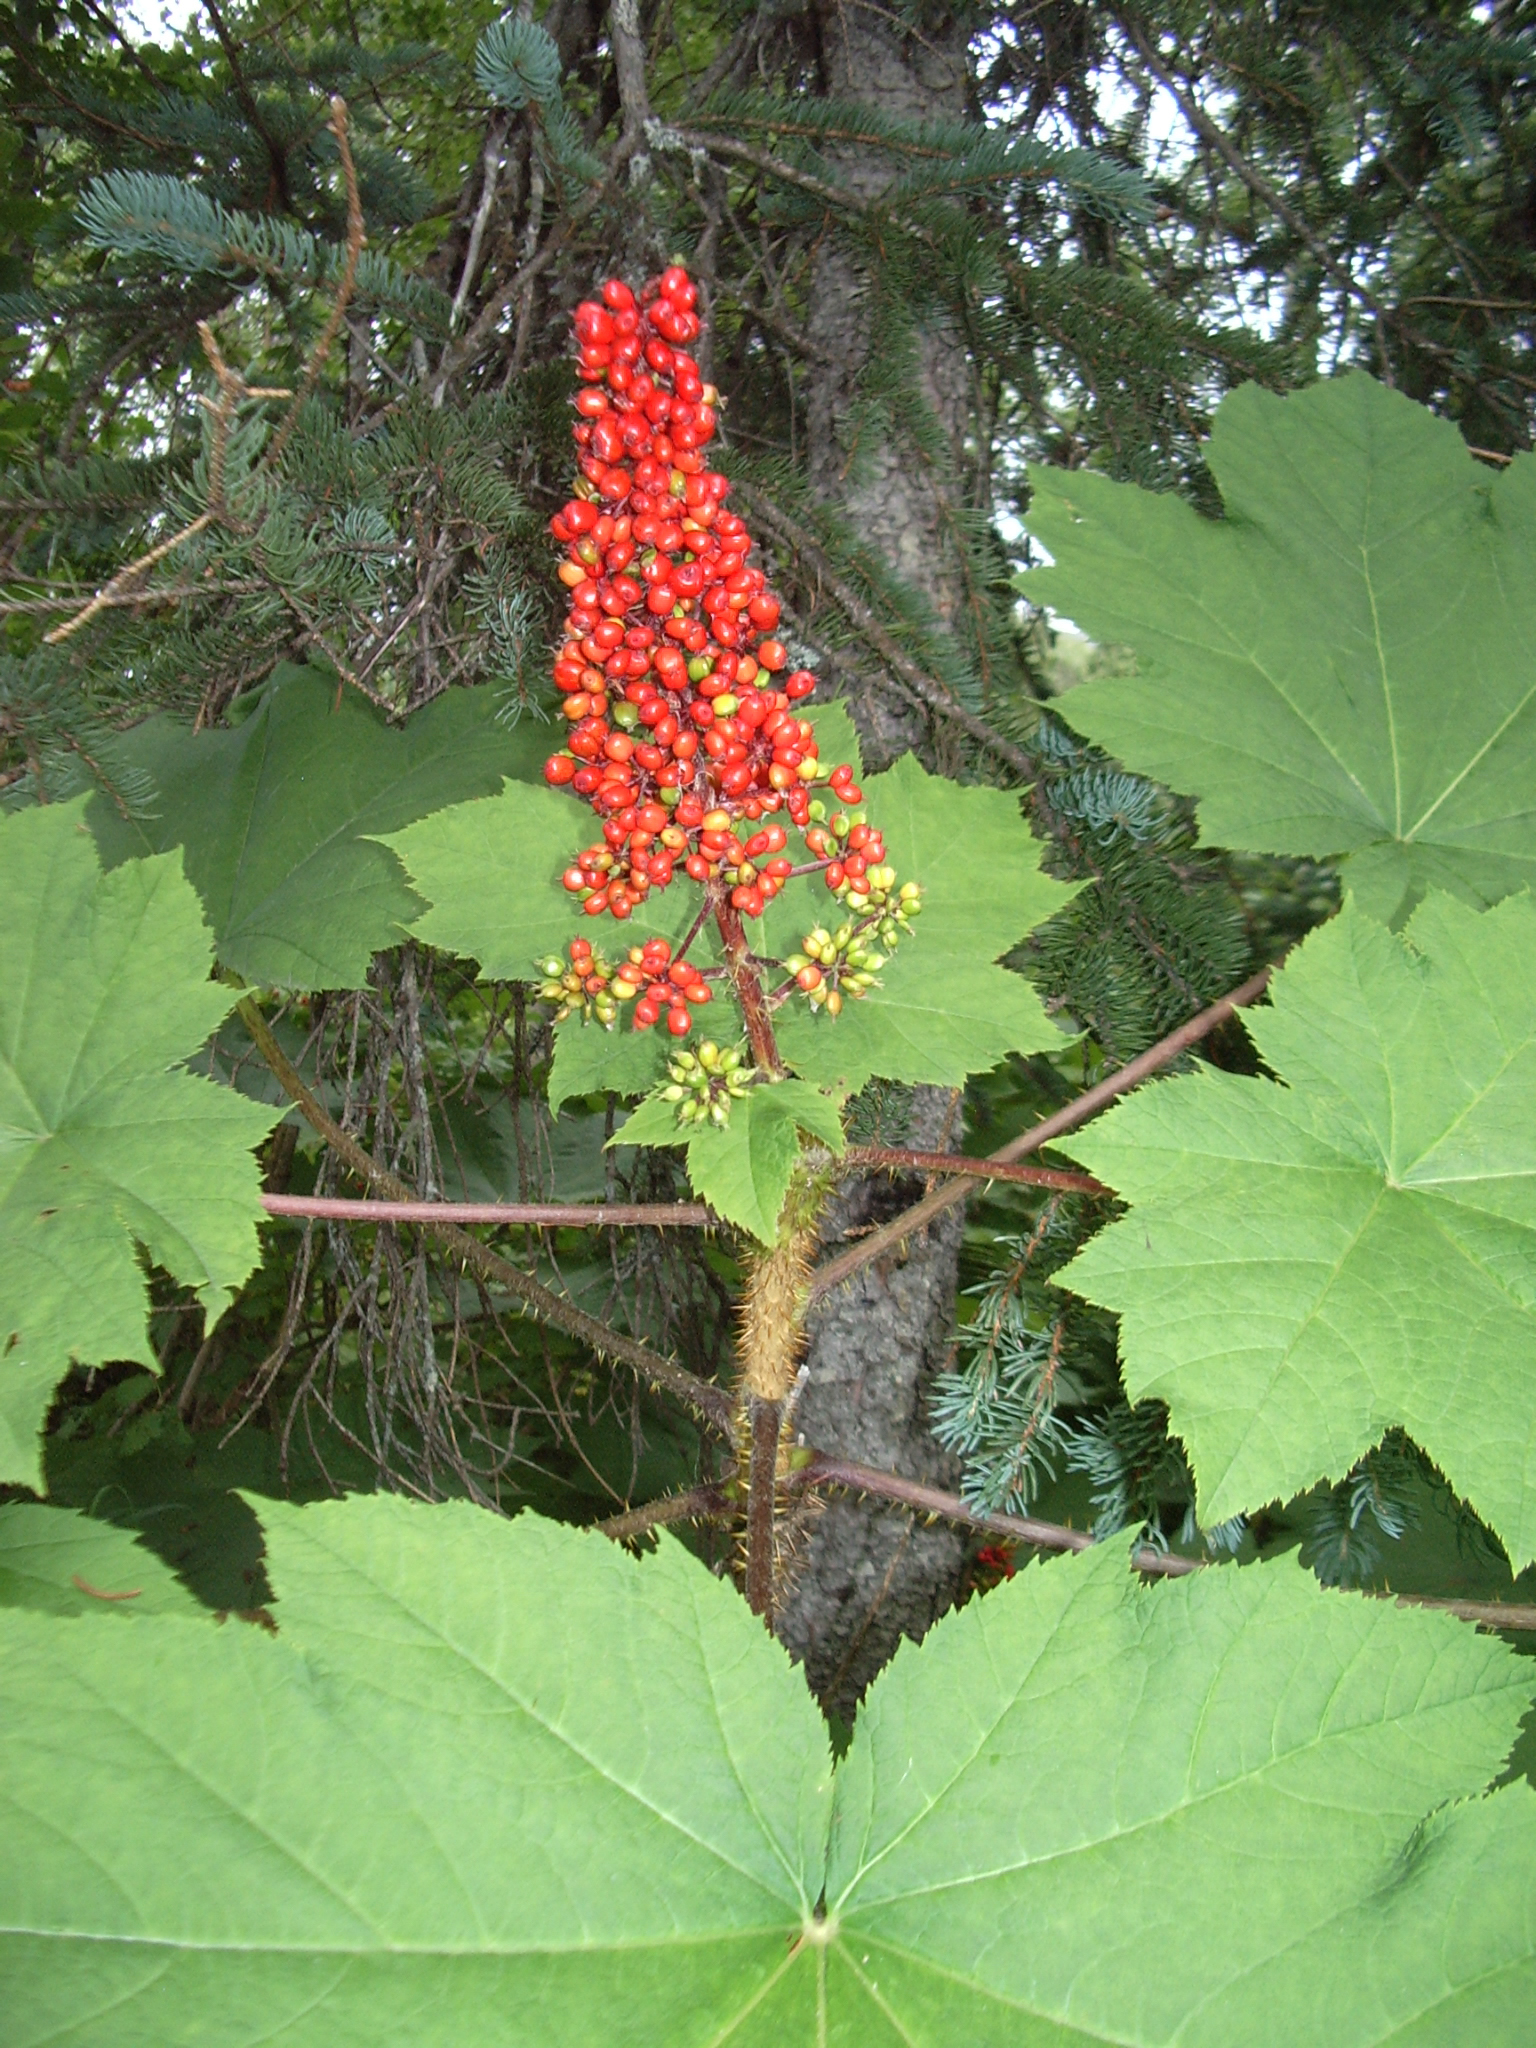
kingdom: Plantae
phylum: Tracheophyta
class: Magnoliopsida
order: Apiales
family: Araliaceae
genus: Oplopanax
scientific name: Oplopanax horridus
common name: Devil's walking-stick
